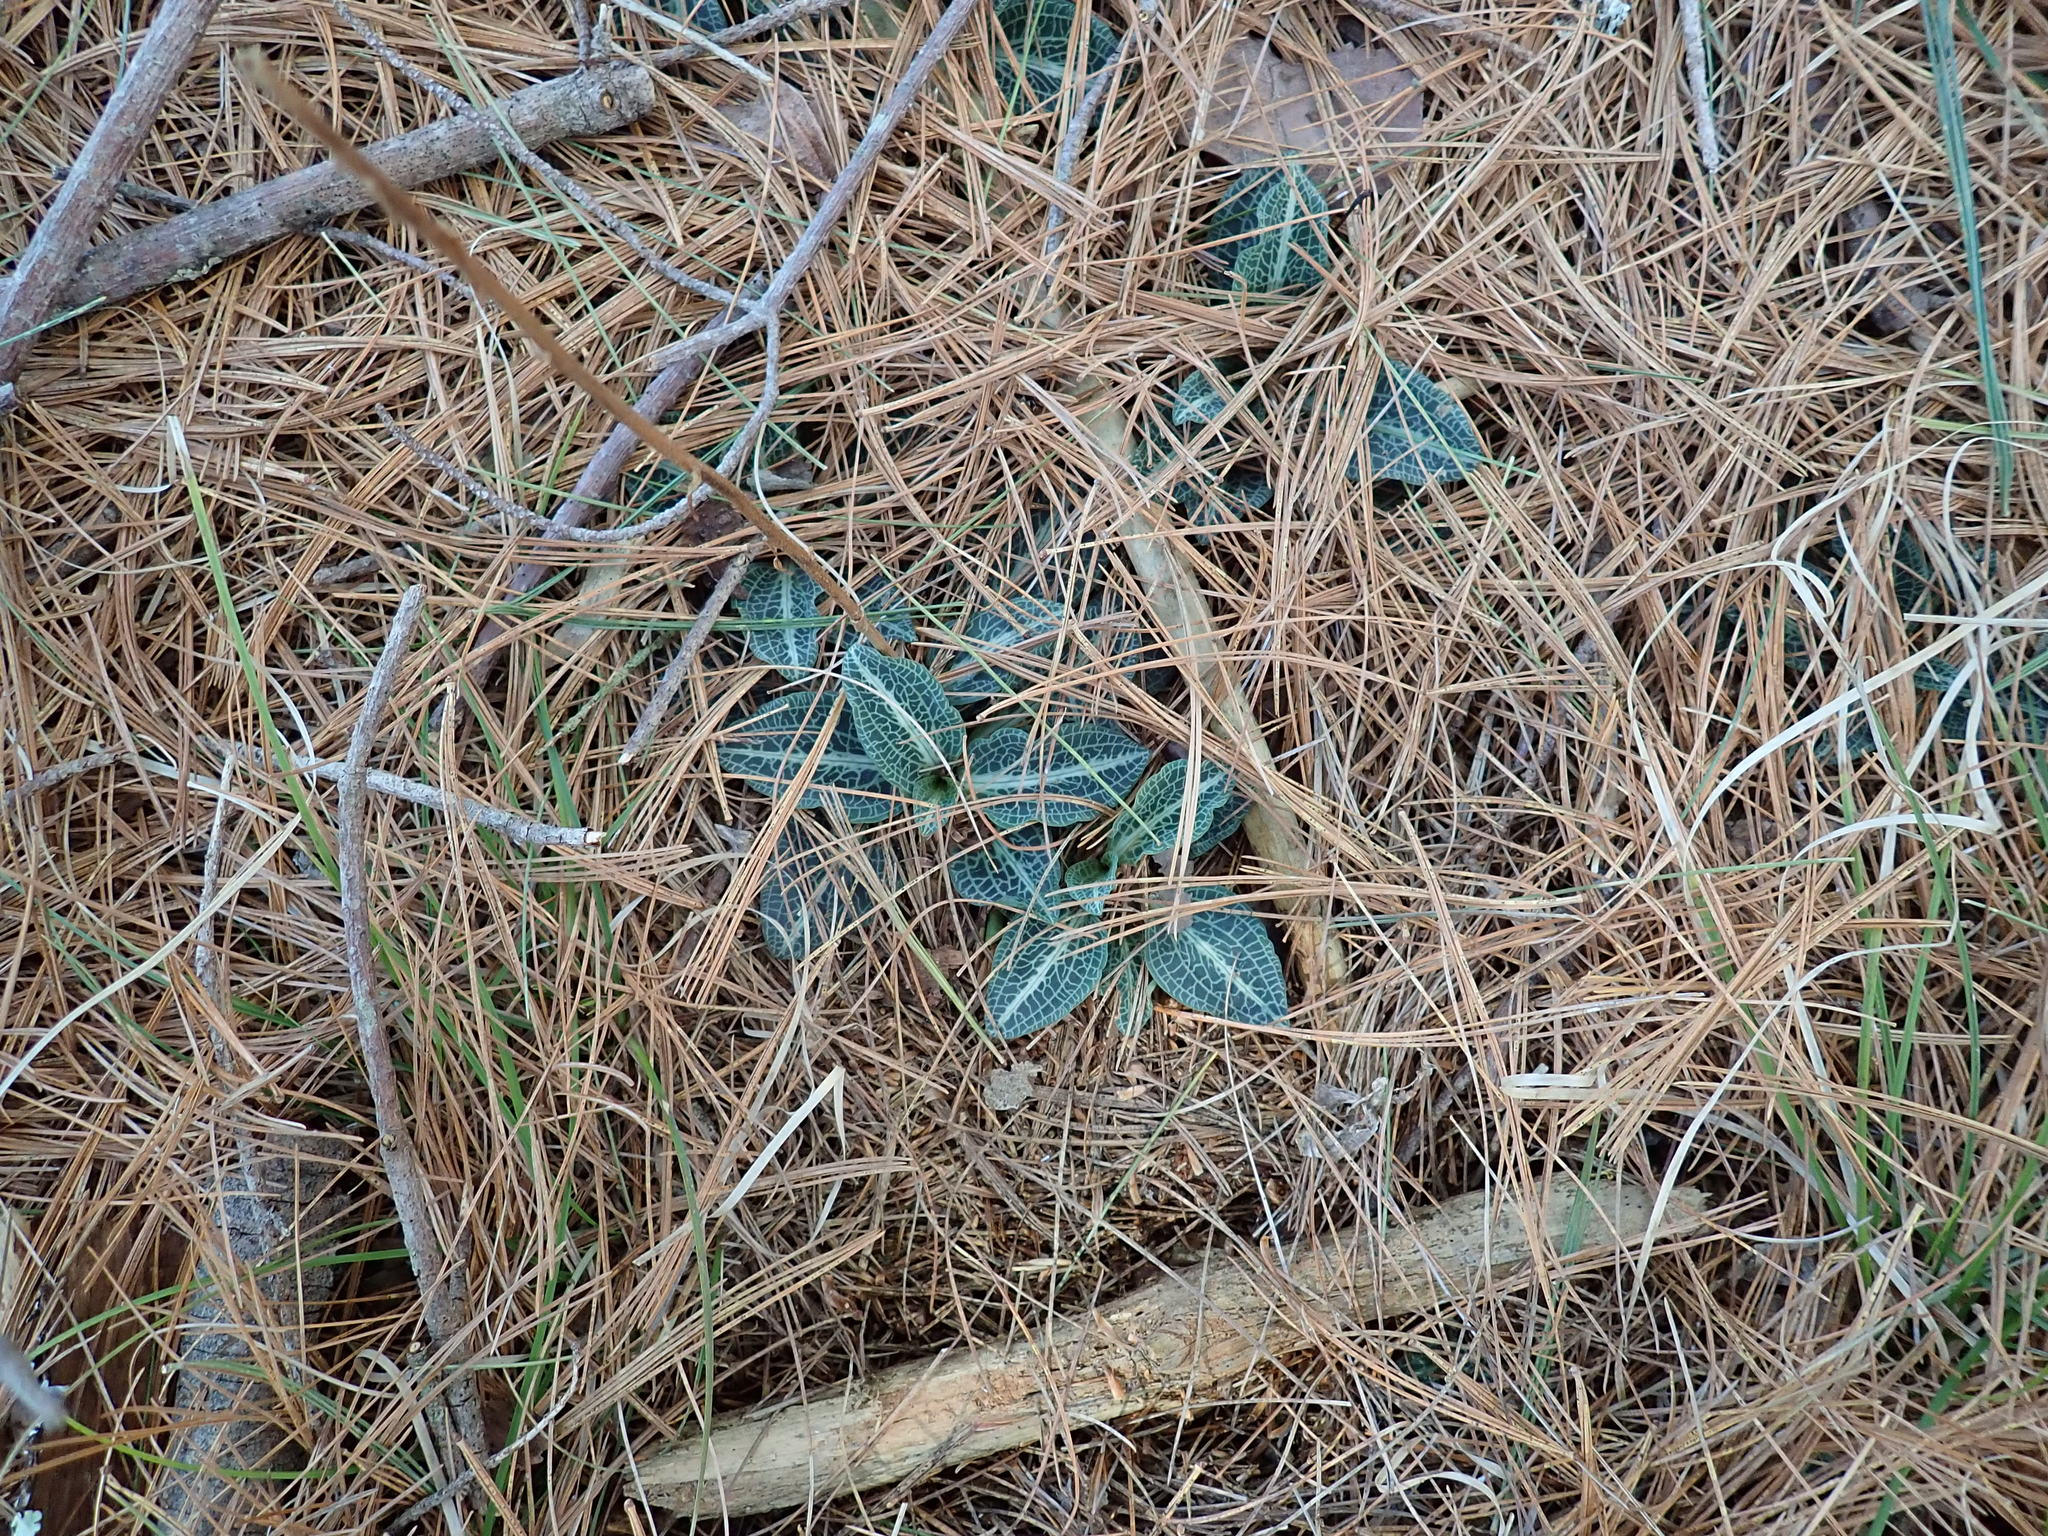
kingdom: Plantae
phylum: Tracheophyta
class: Liliopsida
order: Asparagales
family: Orchidaceae
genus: Goodyera
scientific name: Goodyera pubescens
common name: Downy rattlesnake-plantain
